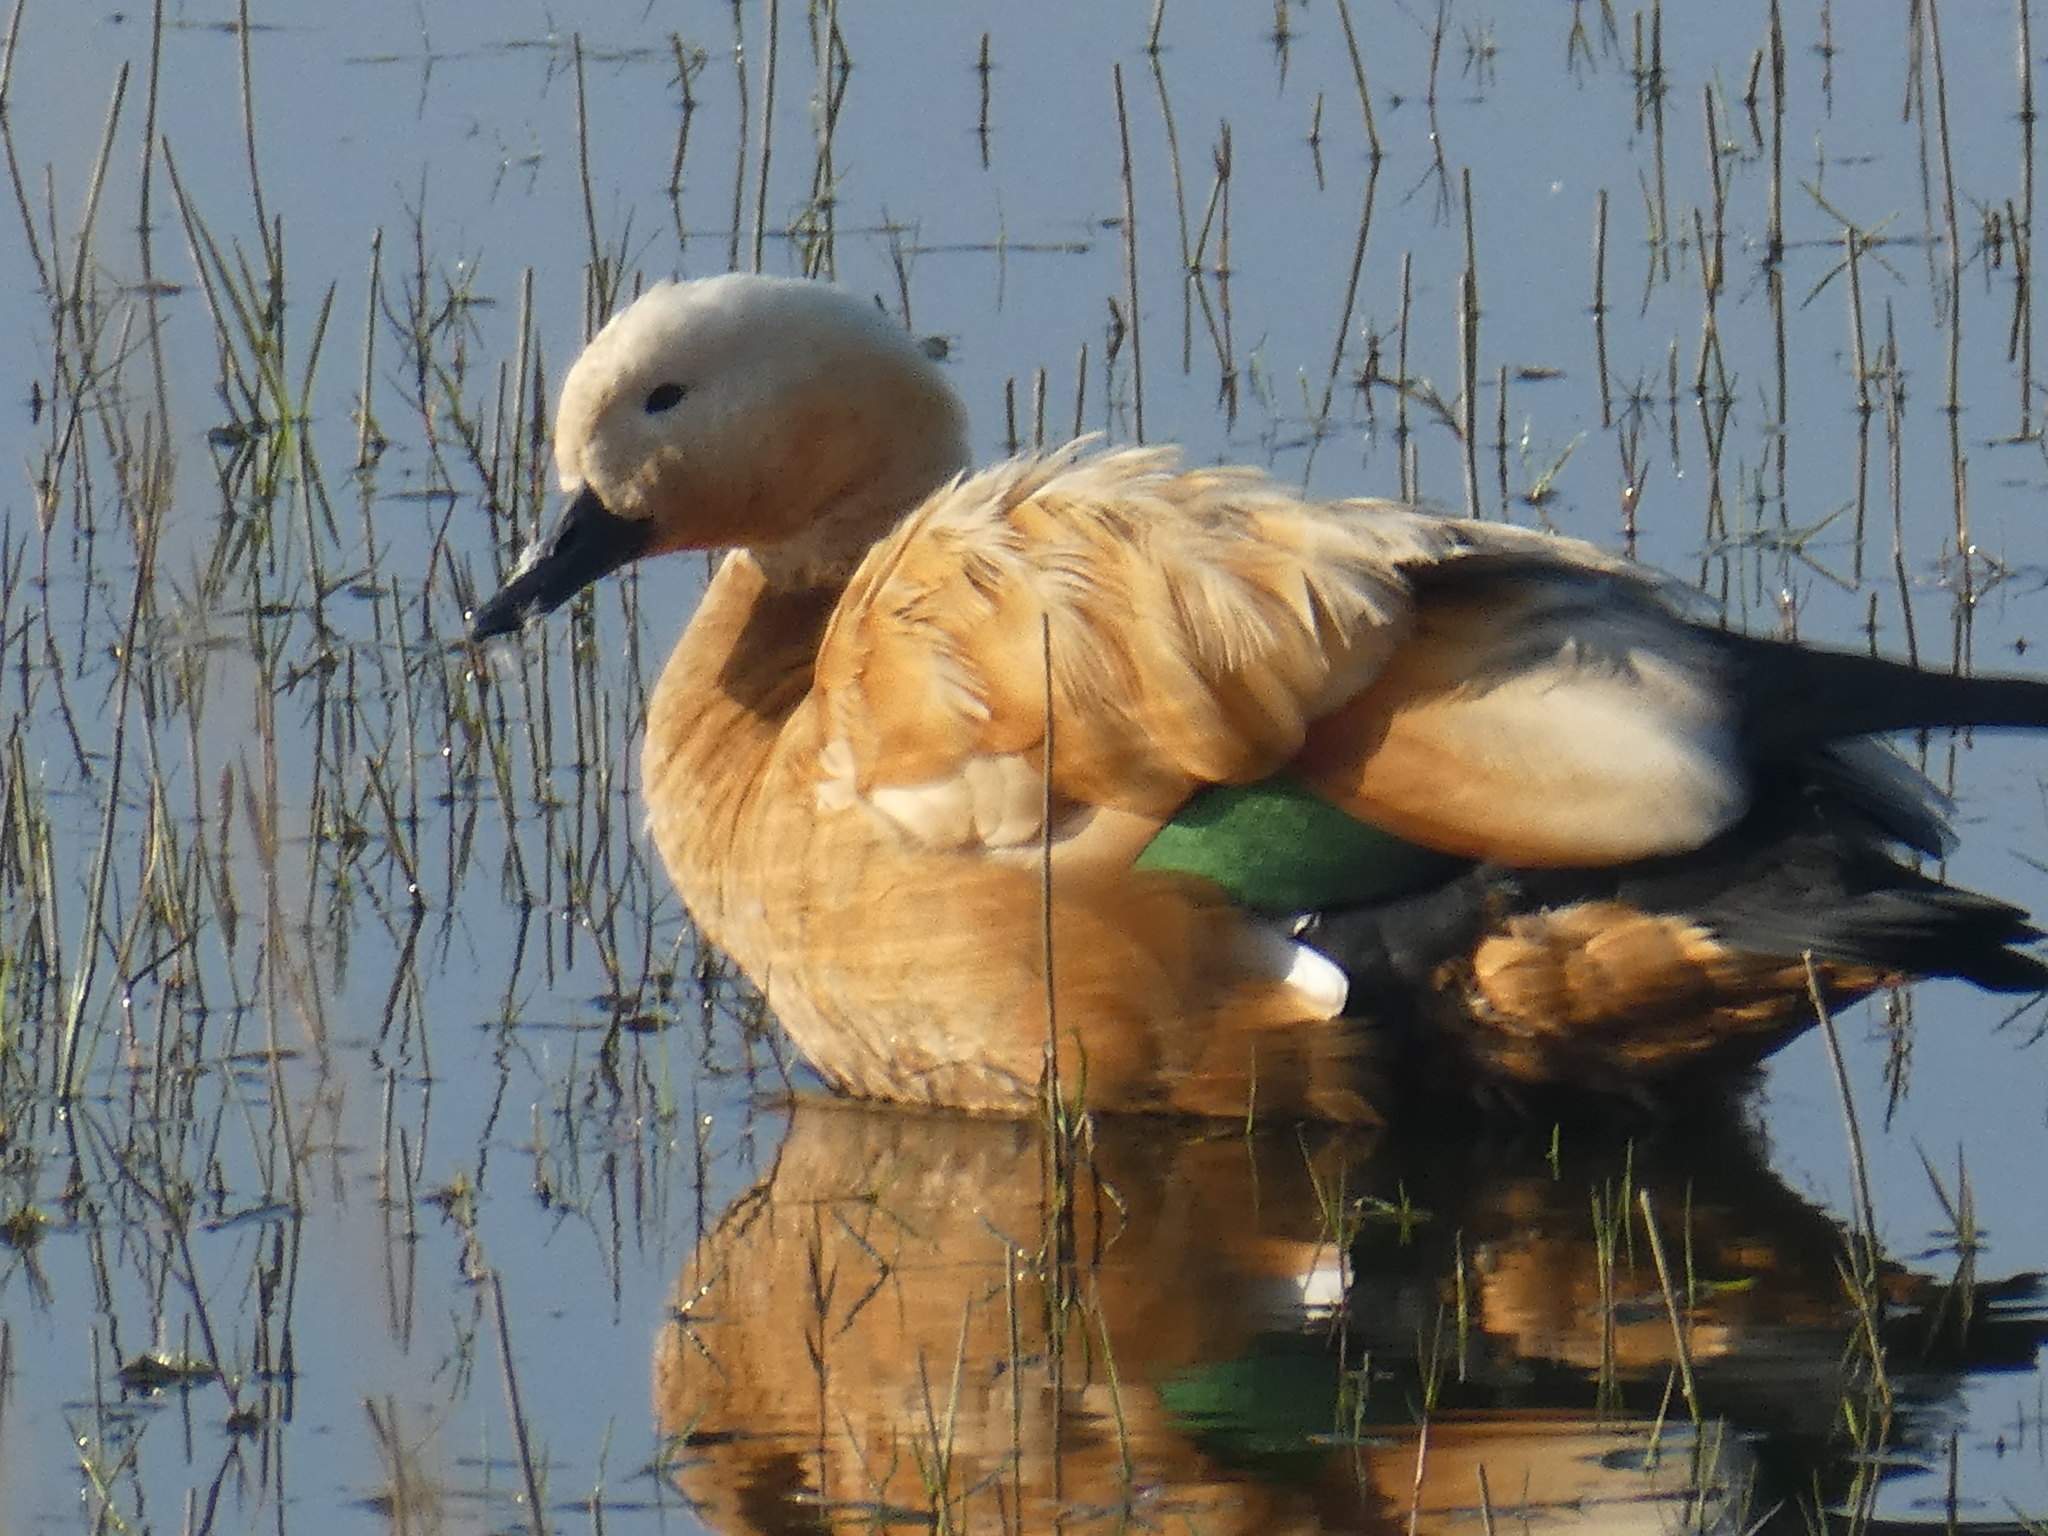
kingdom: Animalia
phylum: Chordata
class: Aves
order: Anseriformes
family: Anatidae
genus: Tadorna
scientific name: Tadorna ferruginea
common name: Ruddy shelduck
